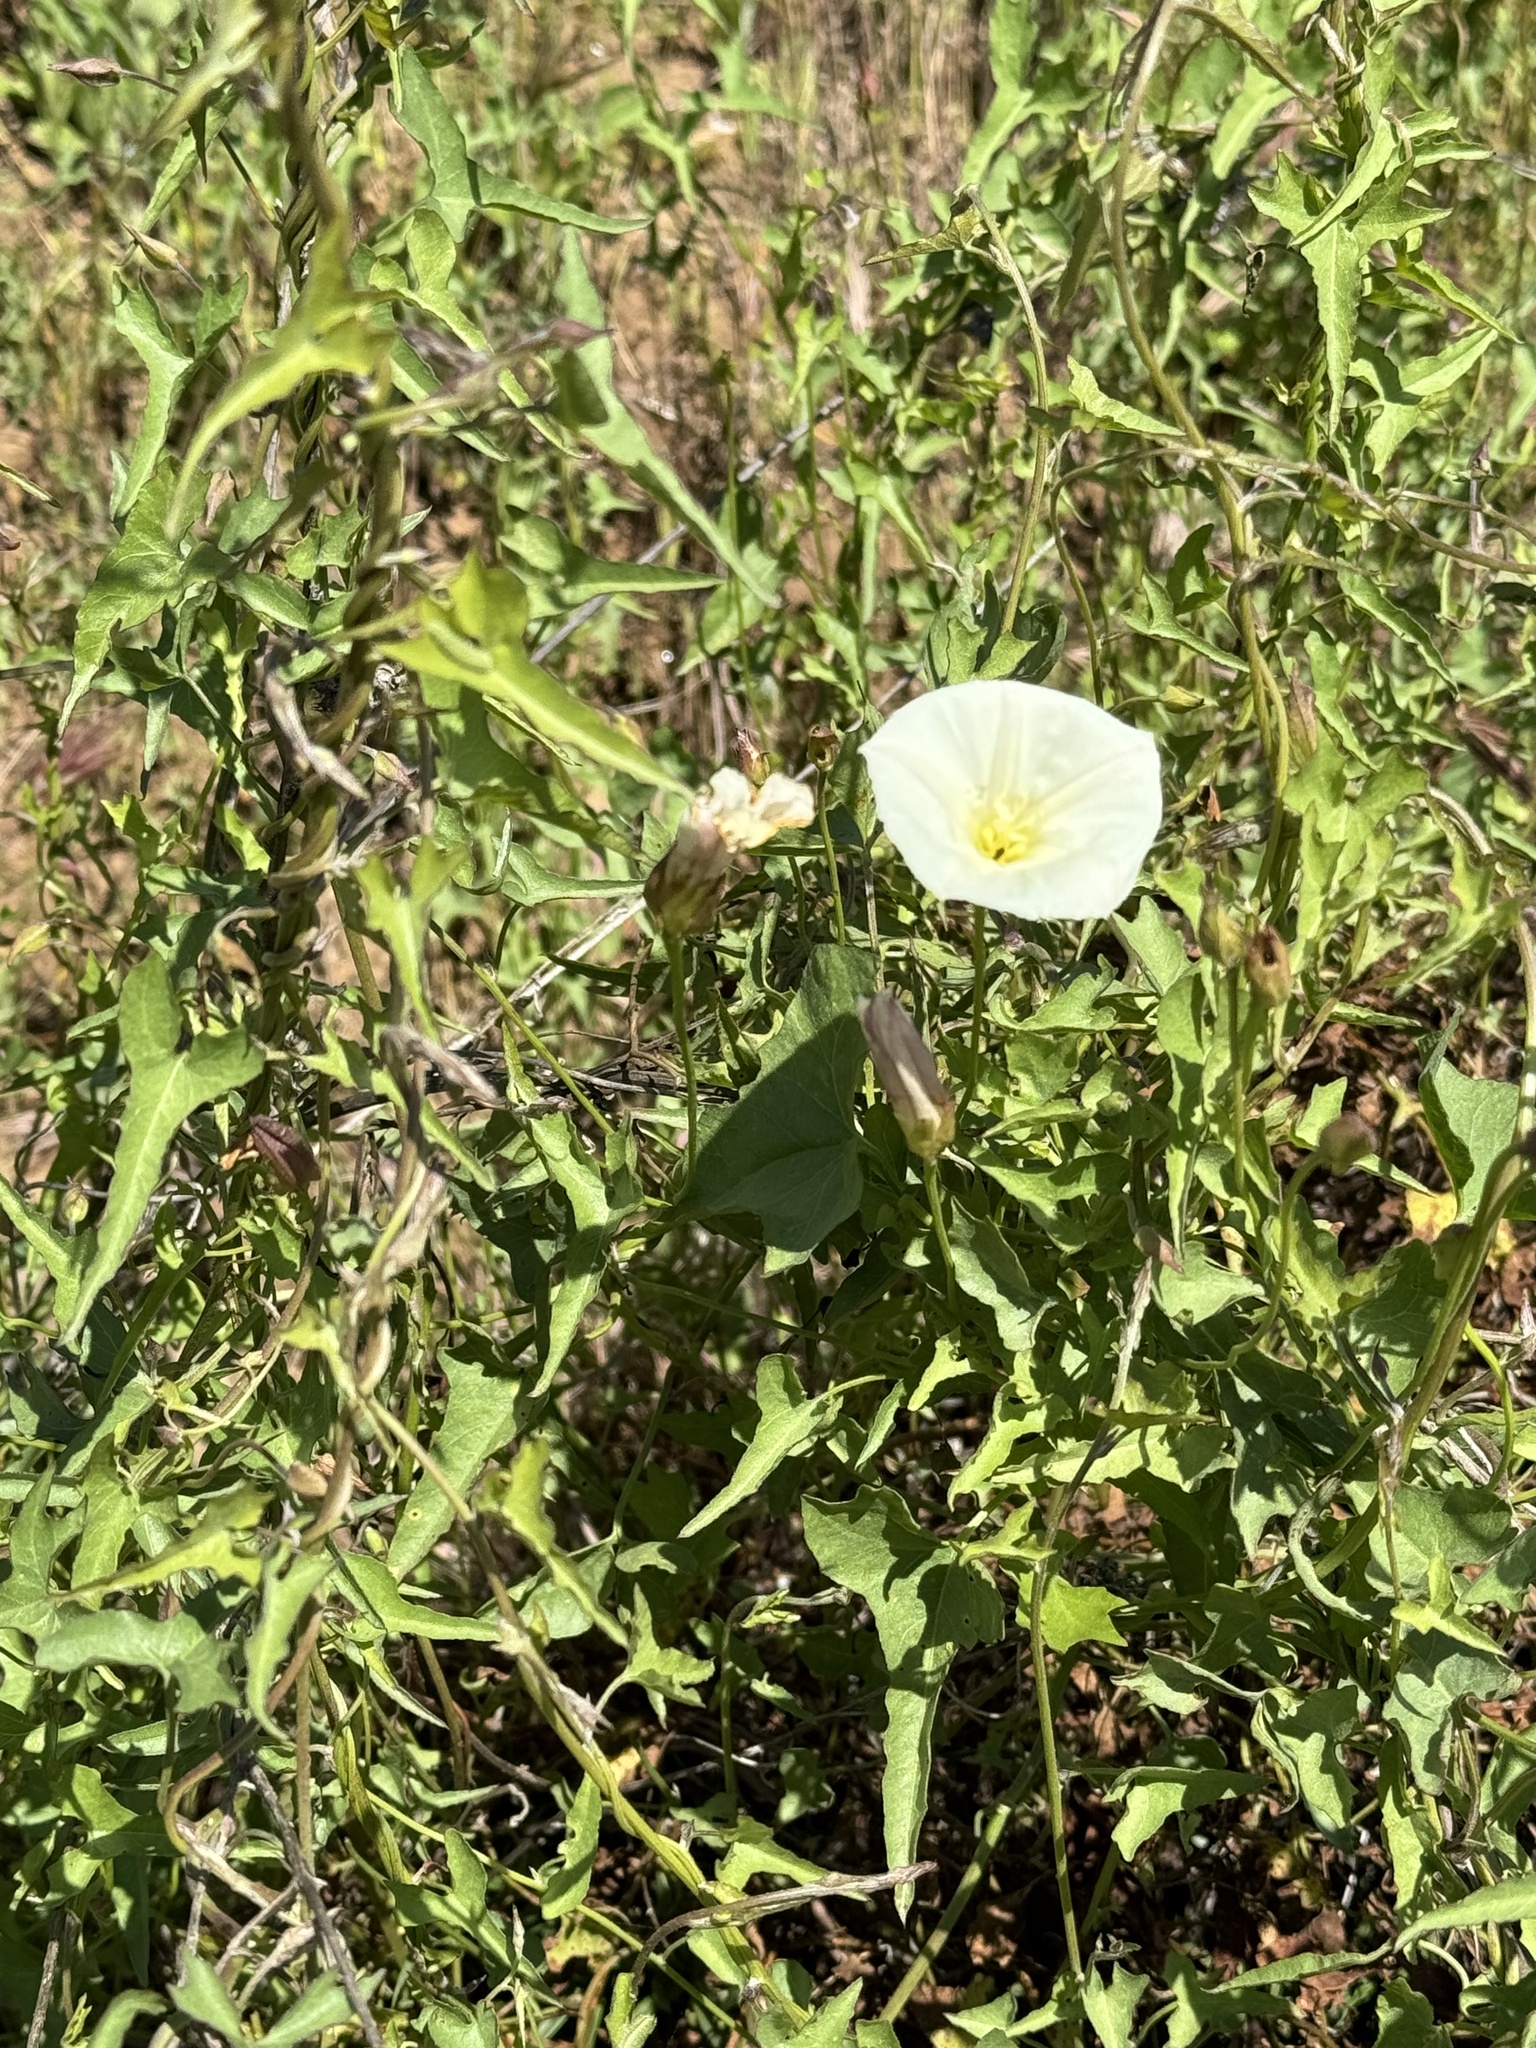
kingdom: Plantae
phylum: Tracheophyta
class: Magnoliopsida
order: Solanales
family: Convolvulaceae
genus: Calystegia
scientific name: Calystegia occidentalis
